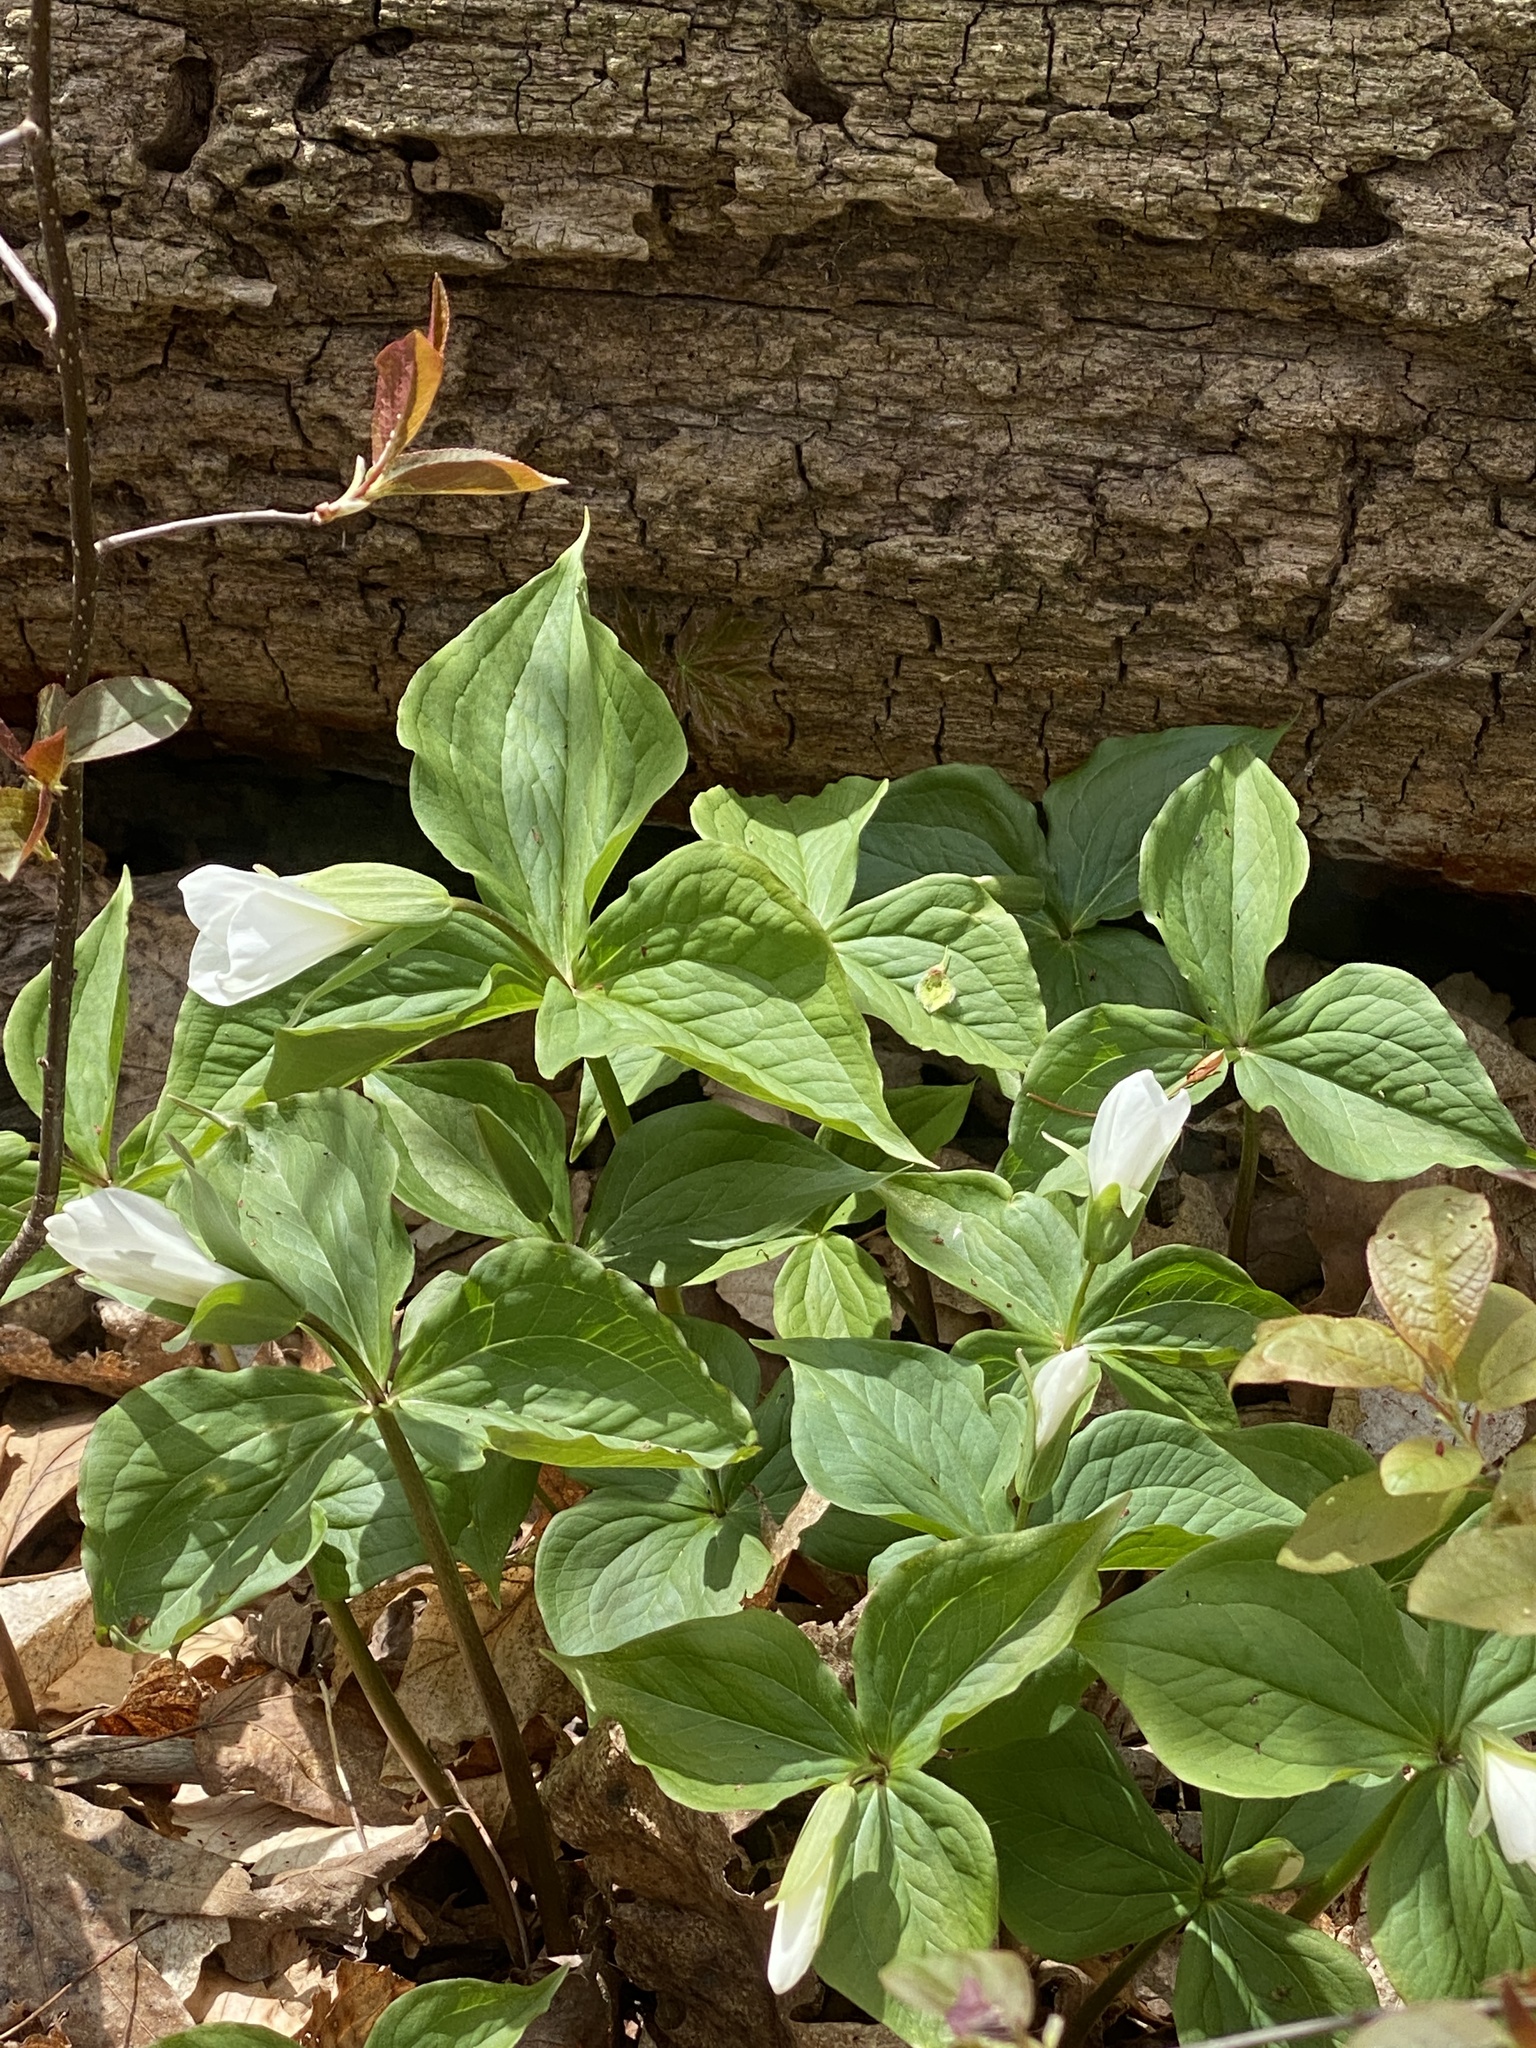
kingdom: Plantae
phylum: Tracheophyta
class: Liliopsida
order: Liliales
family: Melanthiaceae
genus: Trillium
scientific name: Trillium grandiflorum
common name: Great white trillium
